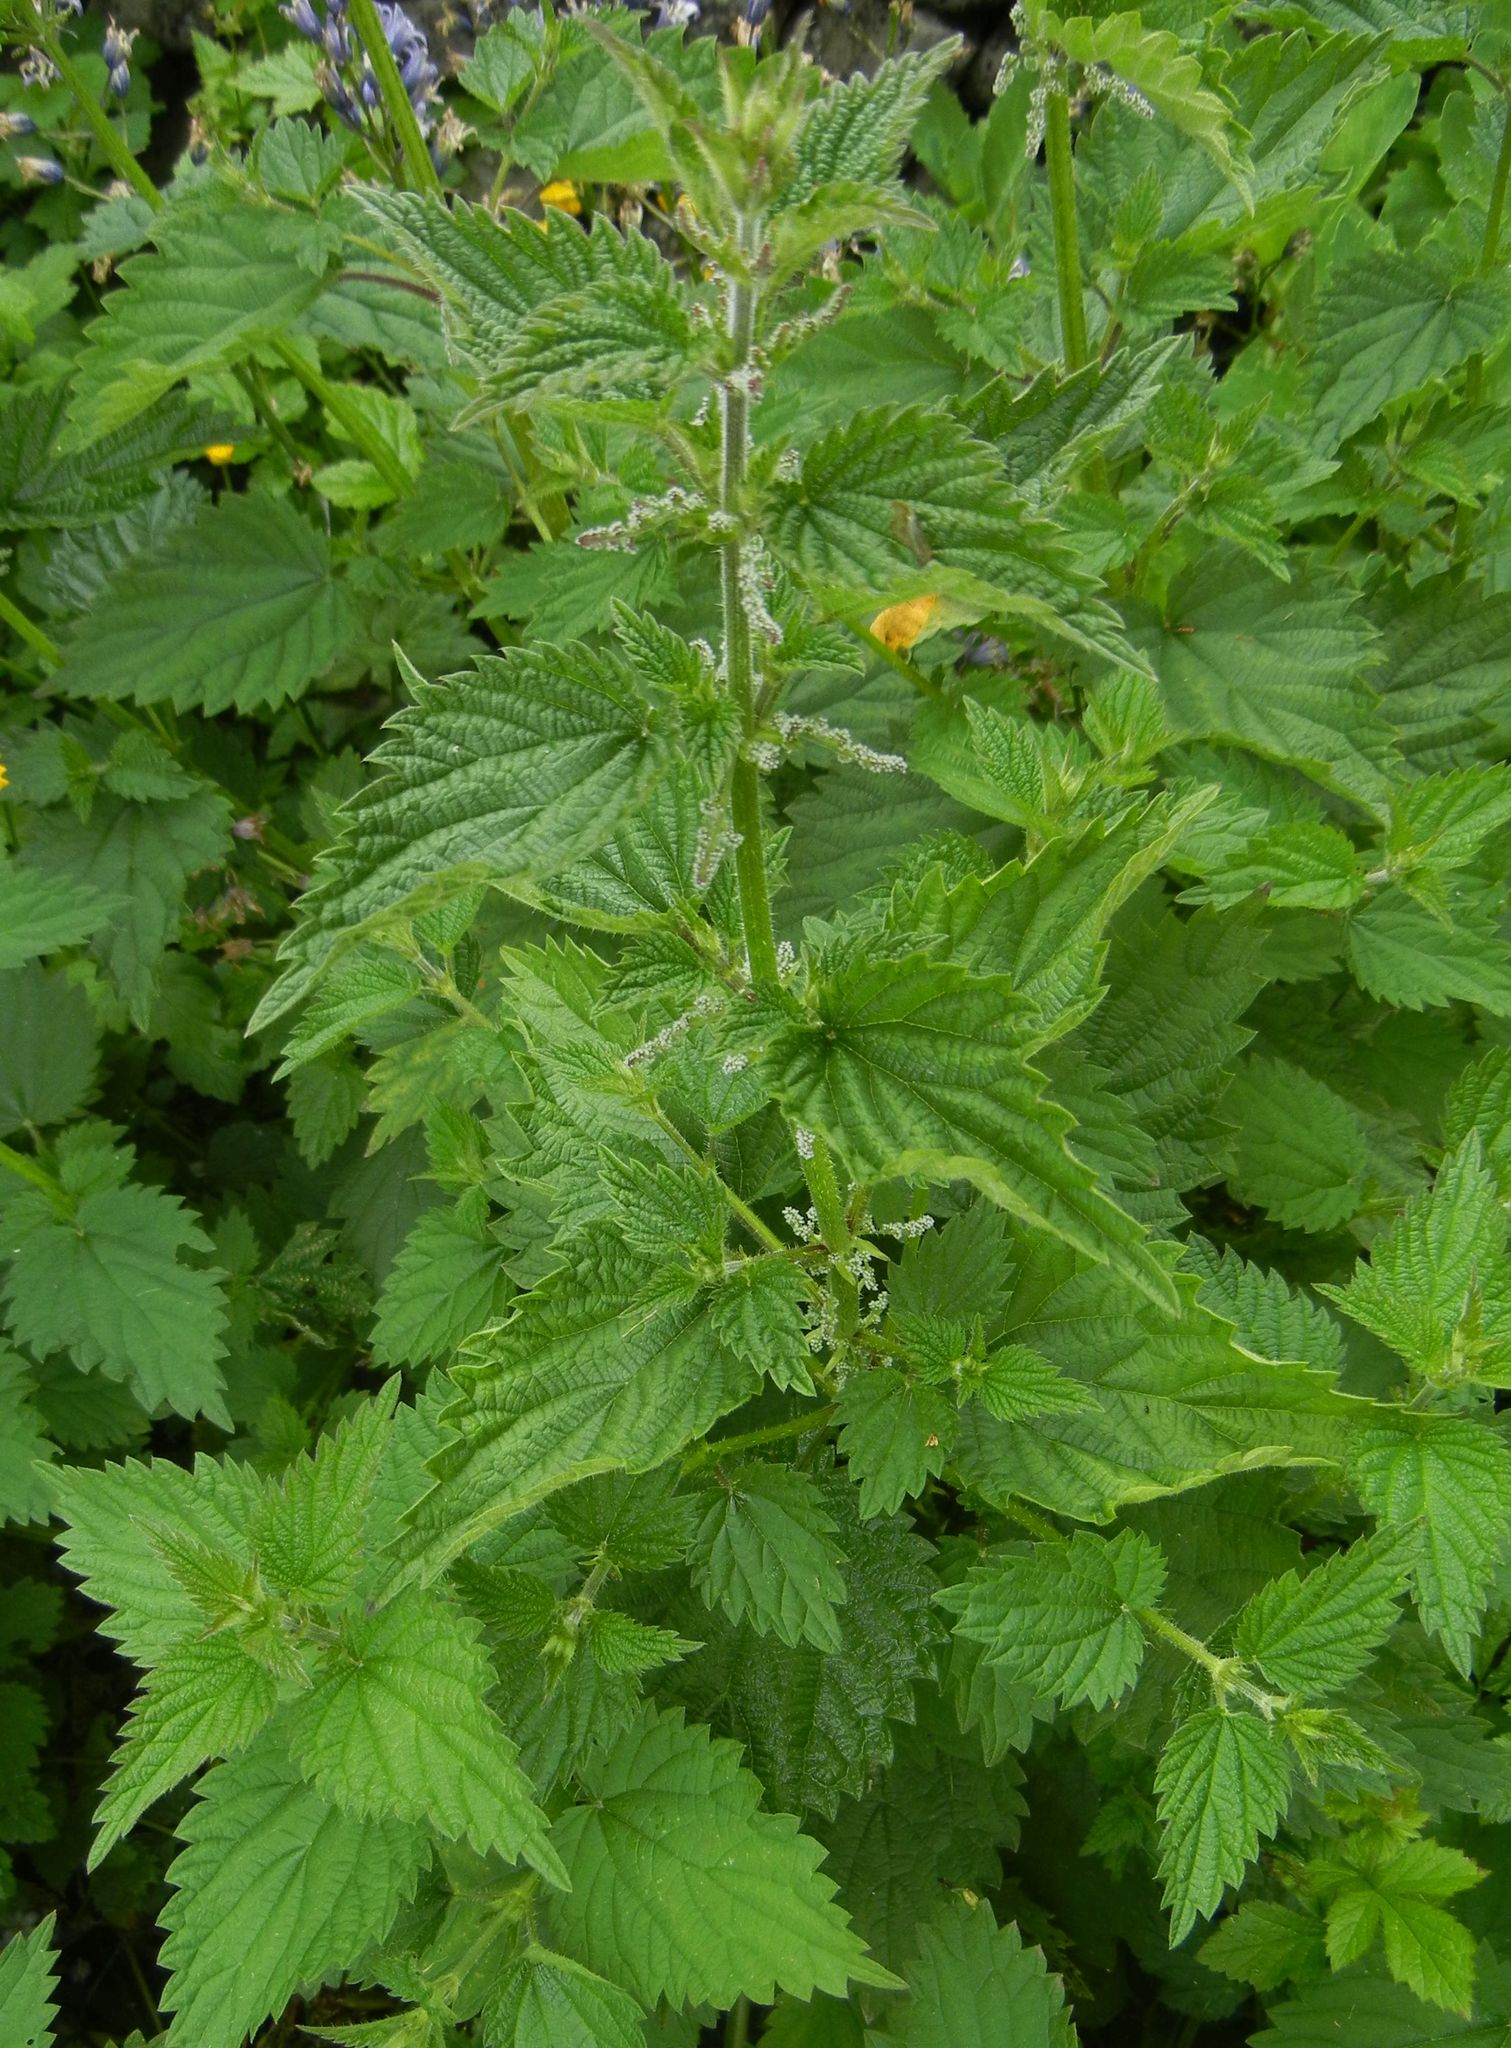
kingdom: Plantae
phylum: Tracheophyta
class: Magnoliopsida
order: Rosales
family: Urticaceae
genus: Urtica
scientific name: Urtica dioica
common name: Common nettle
